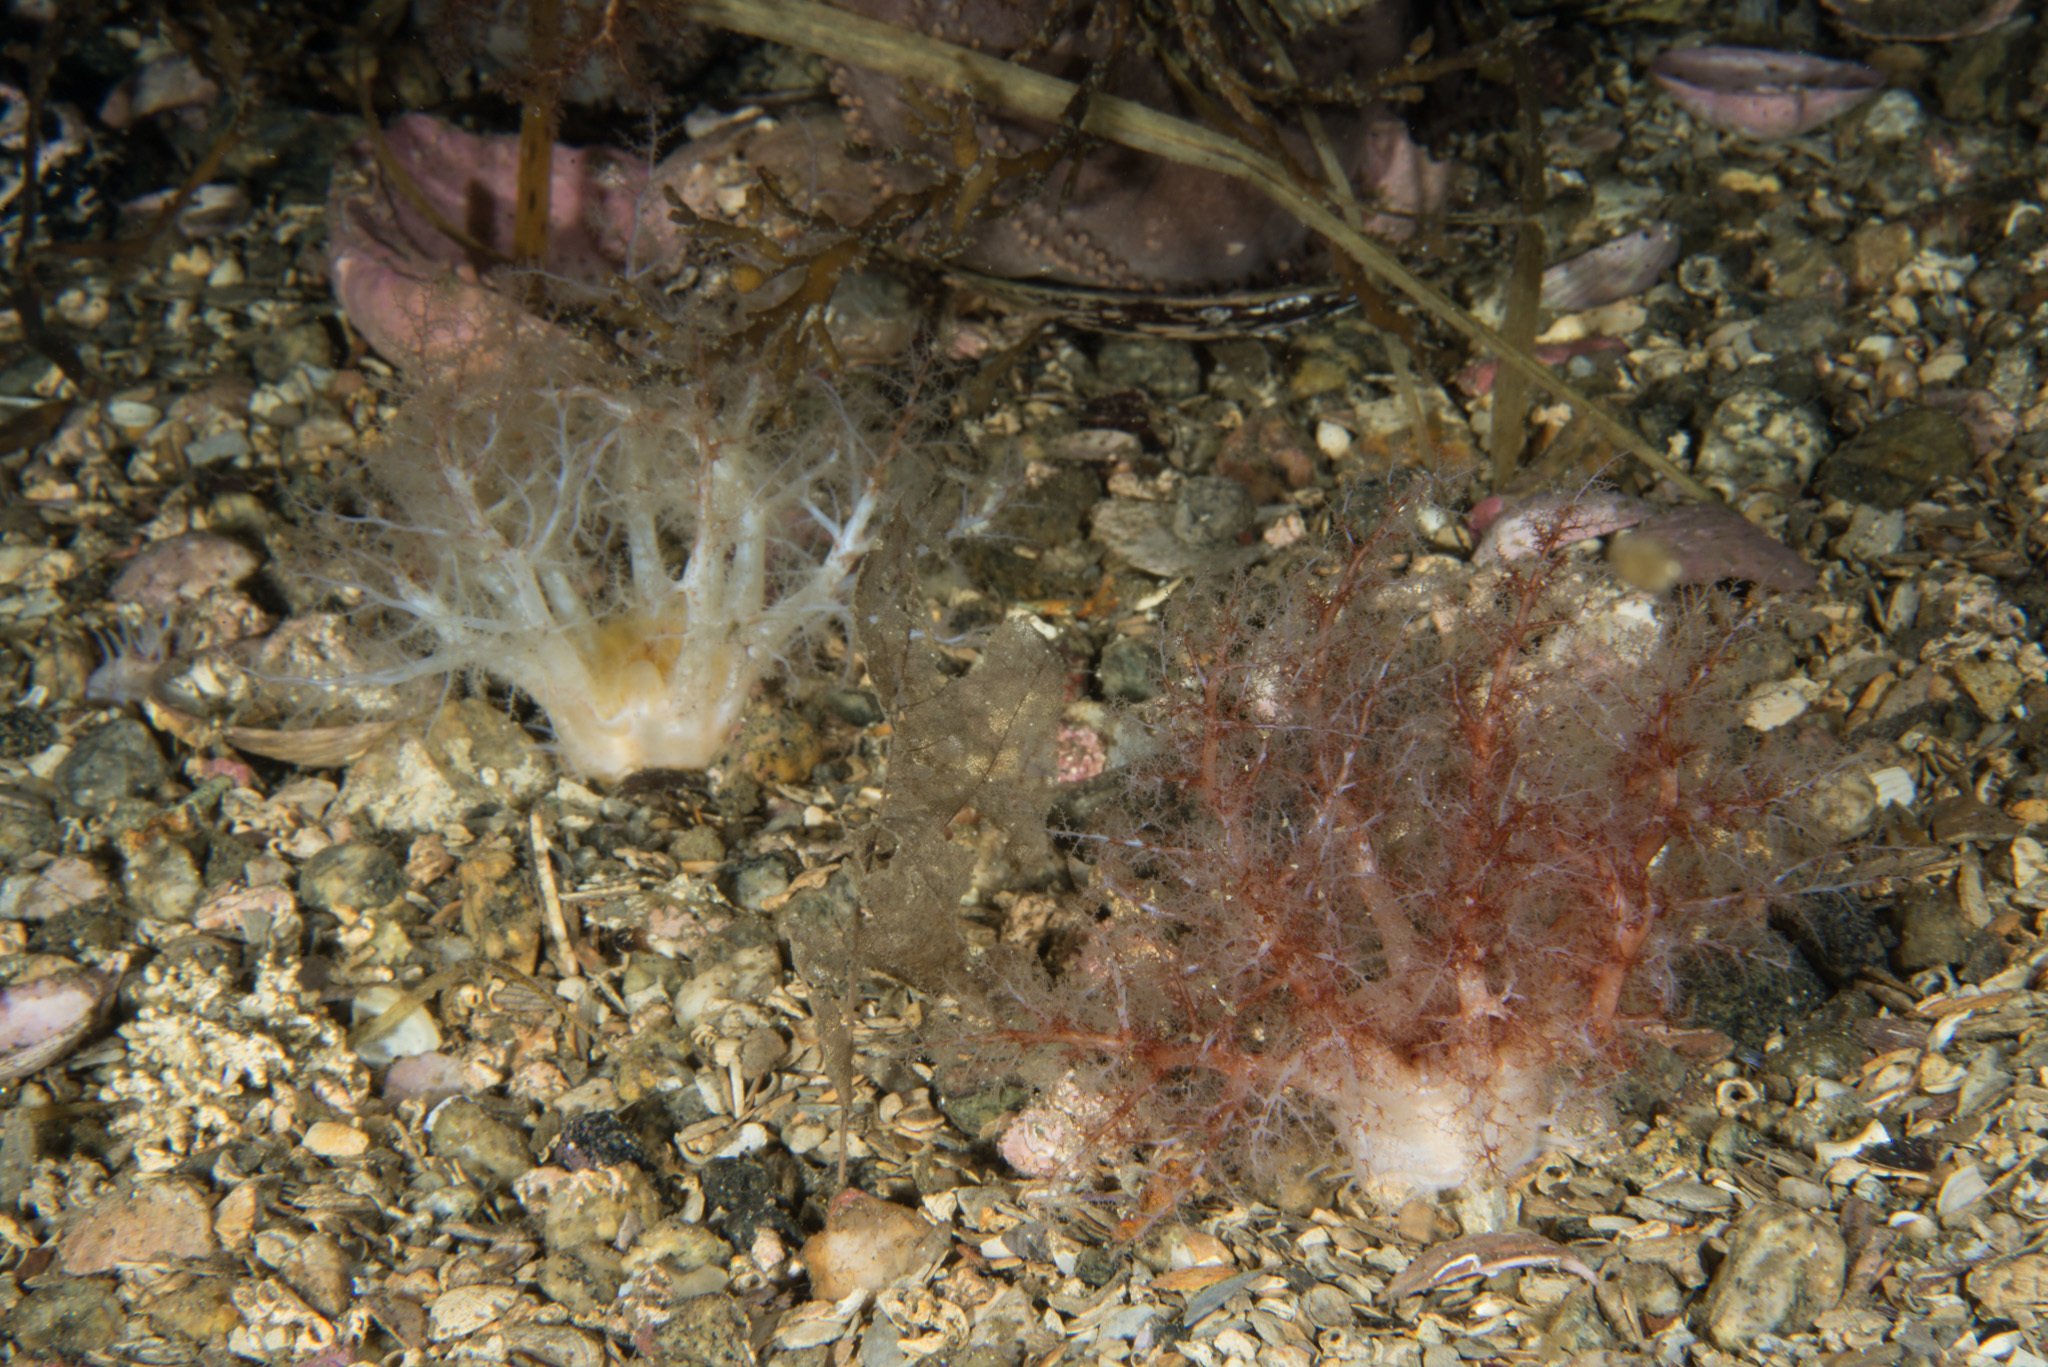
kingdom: Animalia
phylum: Echinodermata
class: Holothuroidea
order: Dendrochirotida
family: Cucumariidae
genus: Thyonidium
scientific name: Thyonidium drummondii
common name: Drummond's sea cucumber
